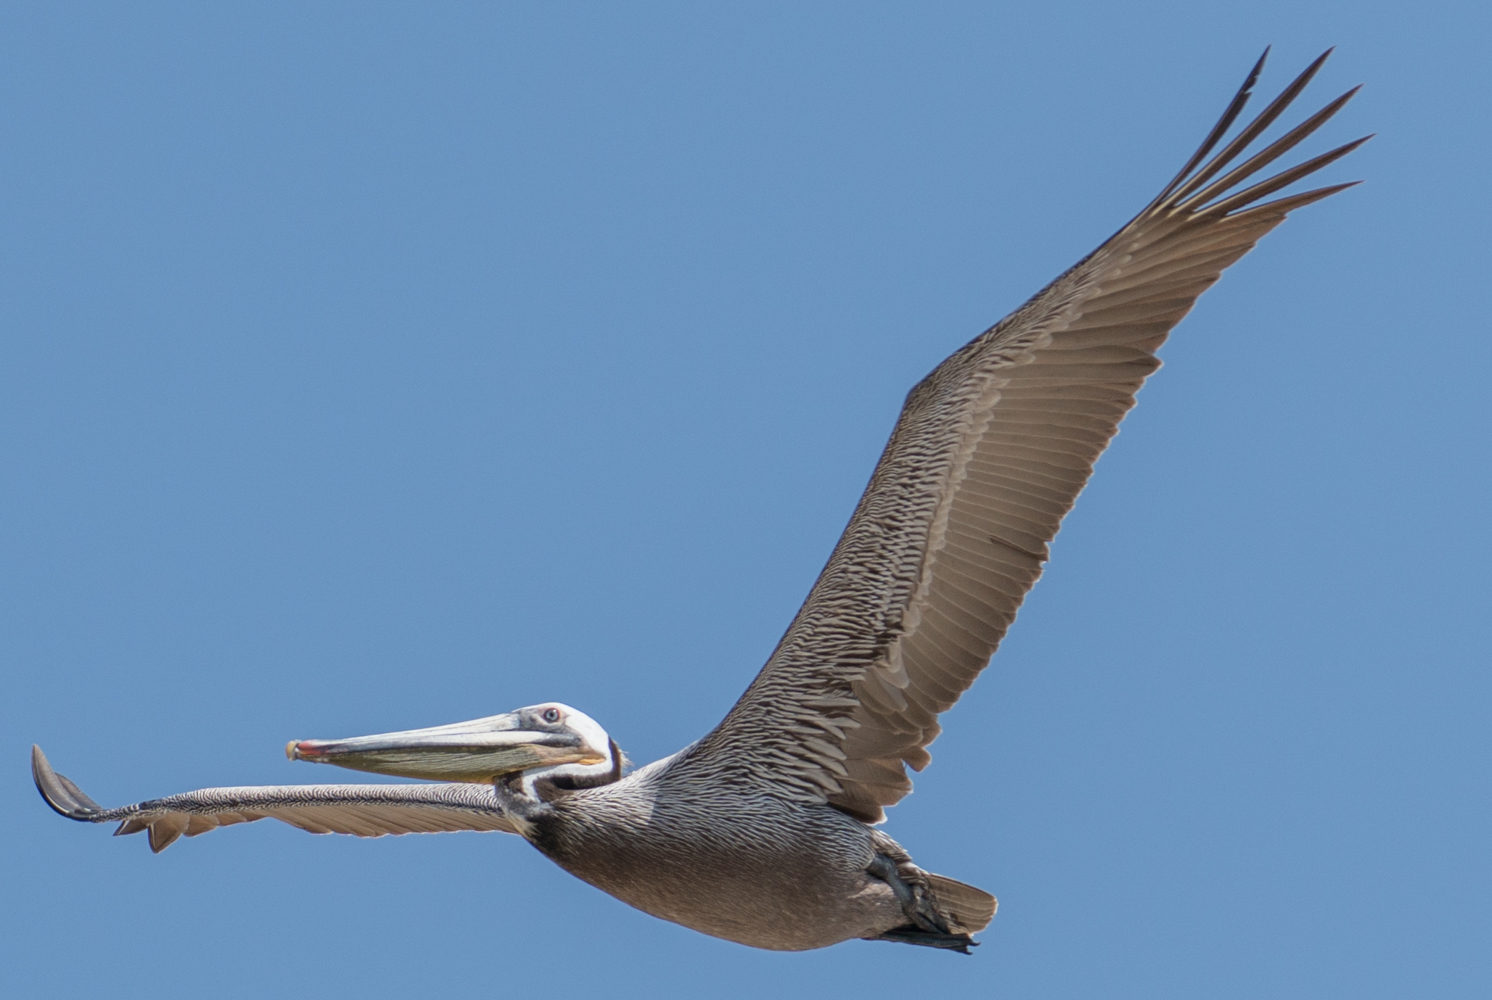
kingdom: Animalia
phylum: Chordata
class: Aves
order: Pelecaniformes
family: Pelecanidae
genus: Pelecanus
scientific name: Pelecanus occidentalis
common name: Brown pelican
